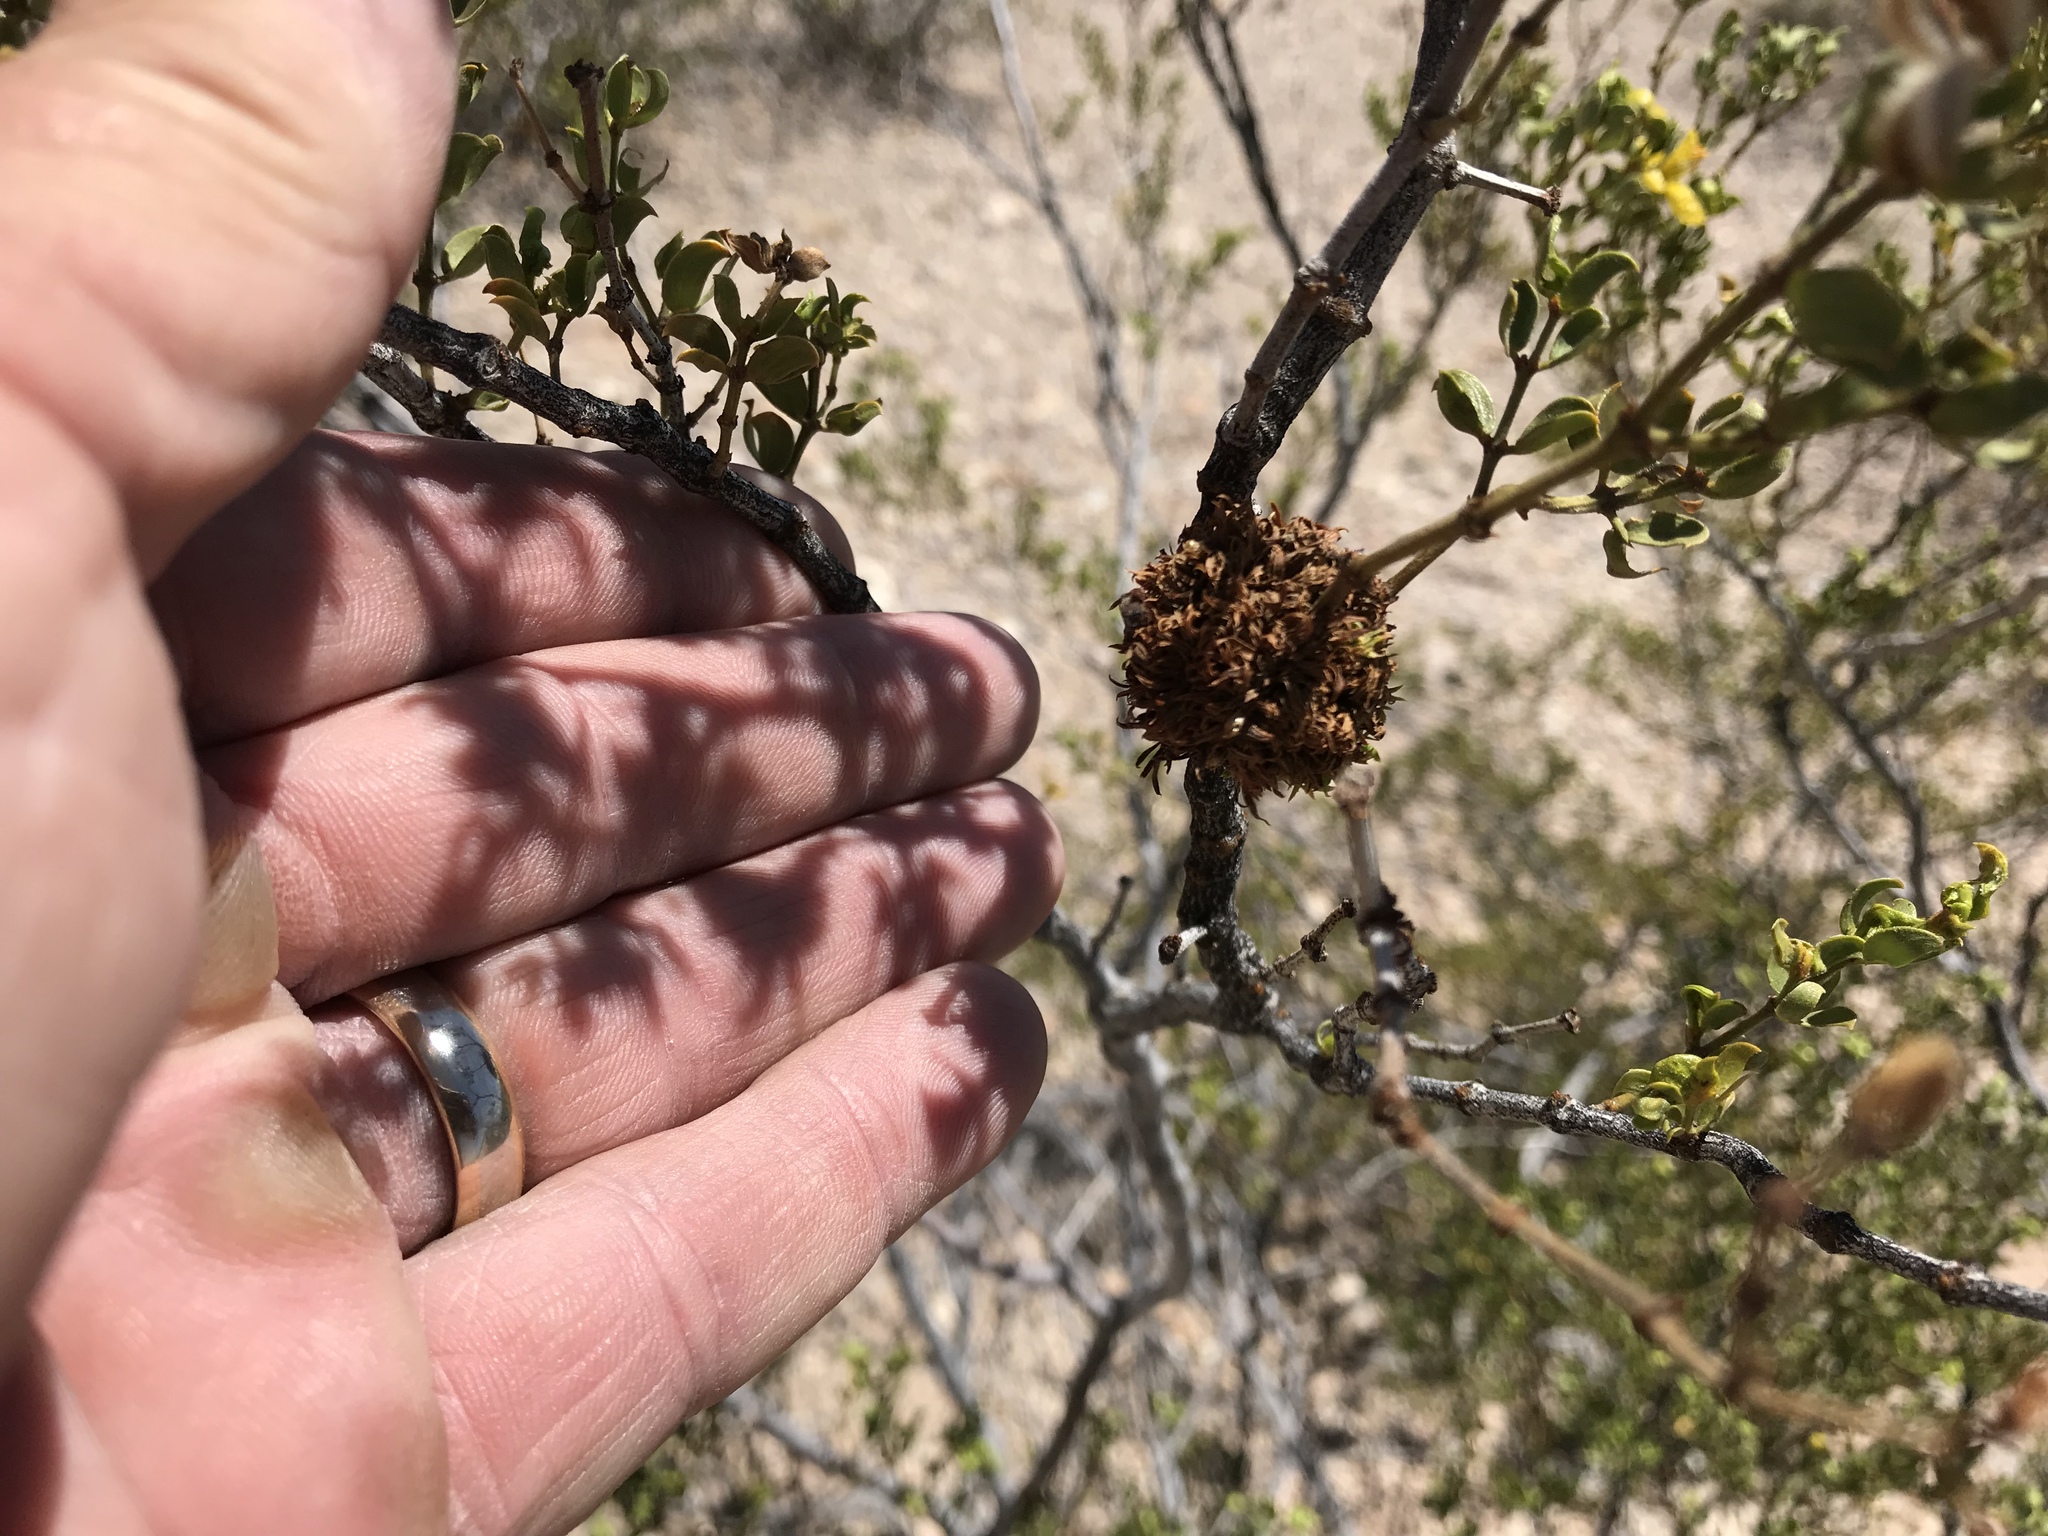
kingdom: Animalia
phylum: Arthropoda
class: Insecta
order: Diptera
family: Cecidomyiidae
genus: Asphondylia
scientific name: Asphondylia auripila
